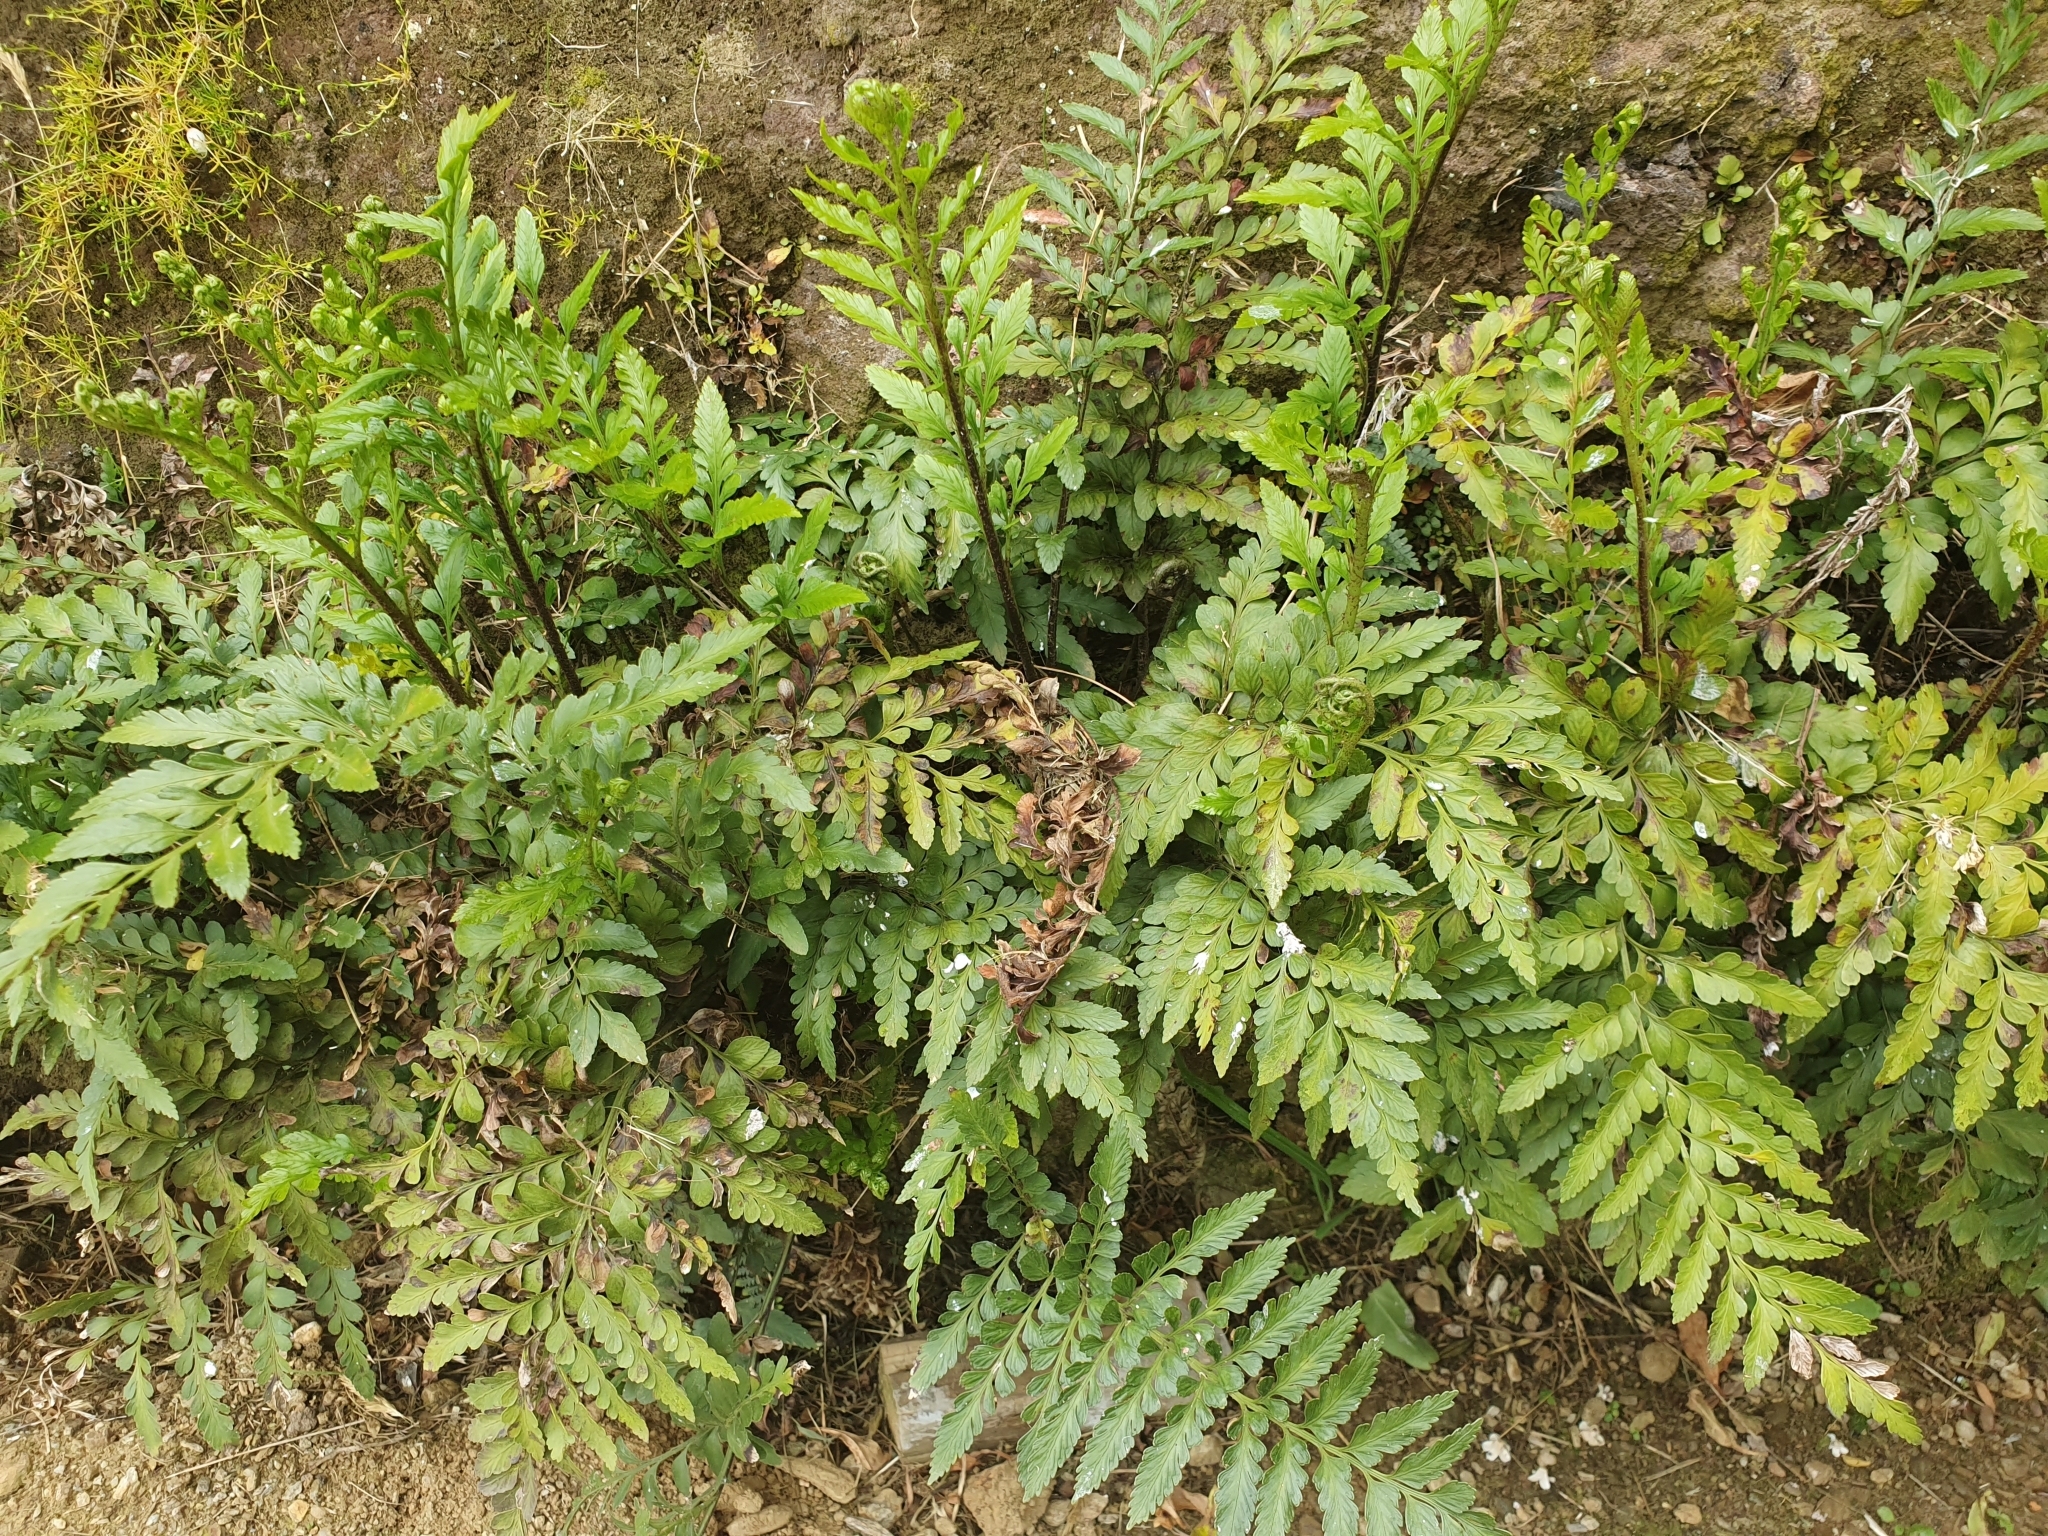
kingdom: Plantae
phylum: Tracheophyta
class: Polypodiopsida
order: Polypodiales
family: Aspleniaceae
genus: Asplenium
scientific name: Asplenium lyallii
